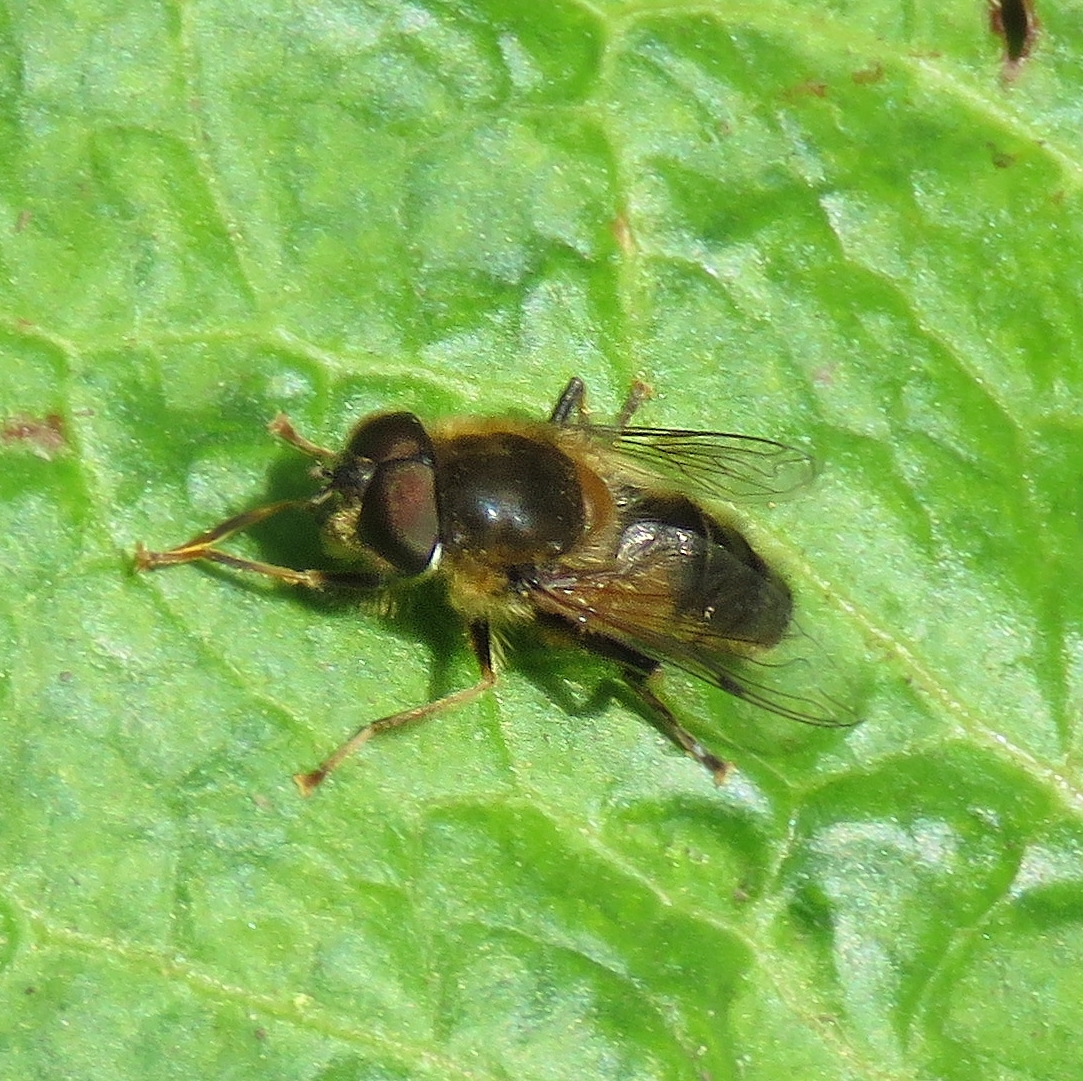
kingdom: Animalia
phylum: Arthropoda
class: Insecta
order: Diptera
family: Syrphidae
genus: Eristalis
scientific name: Eristalis pertinax
